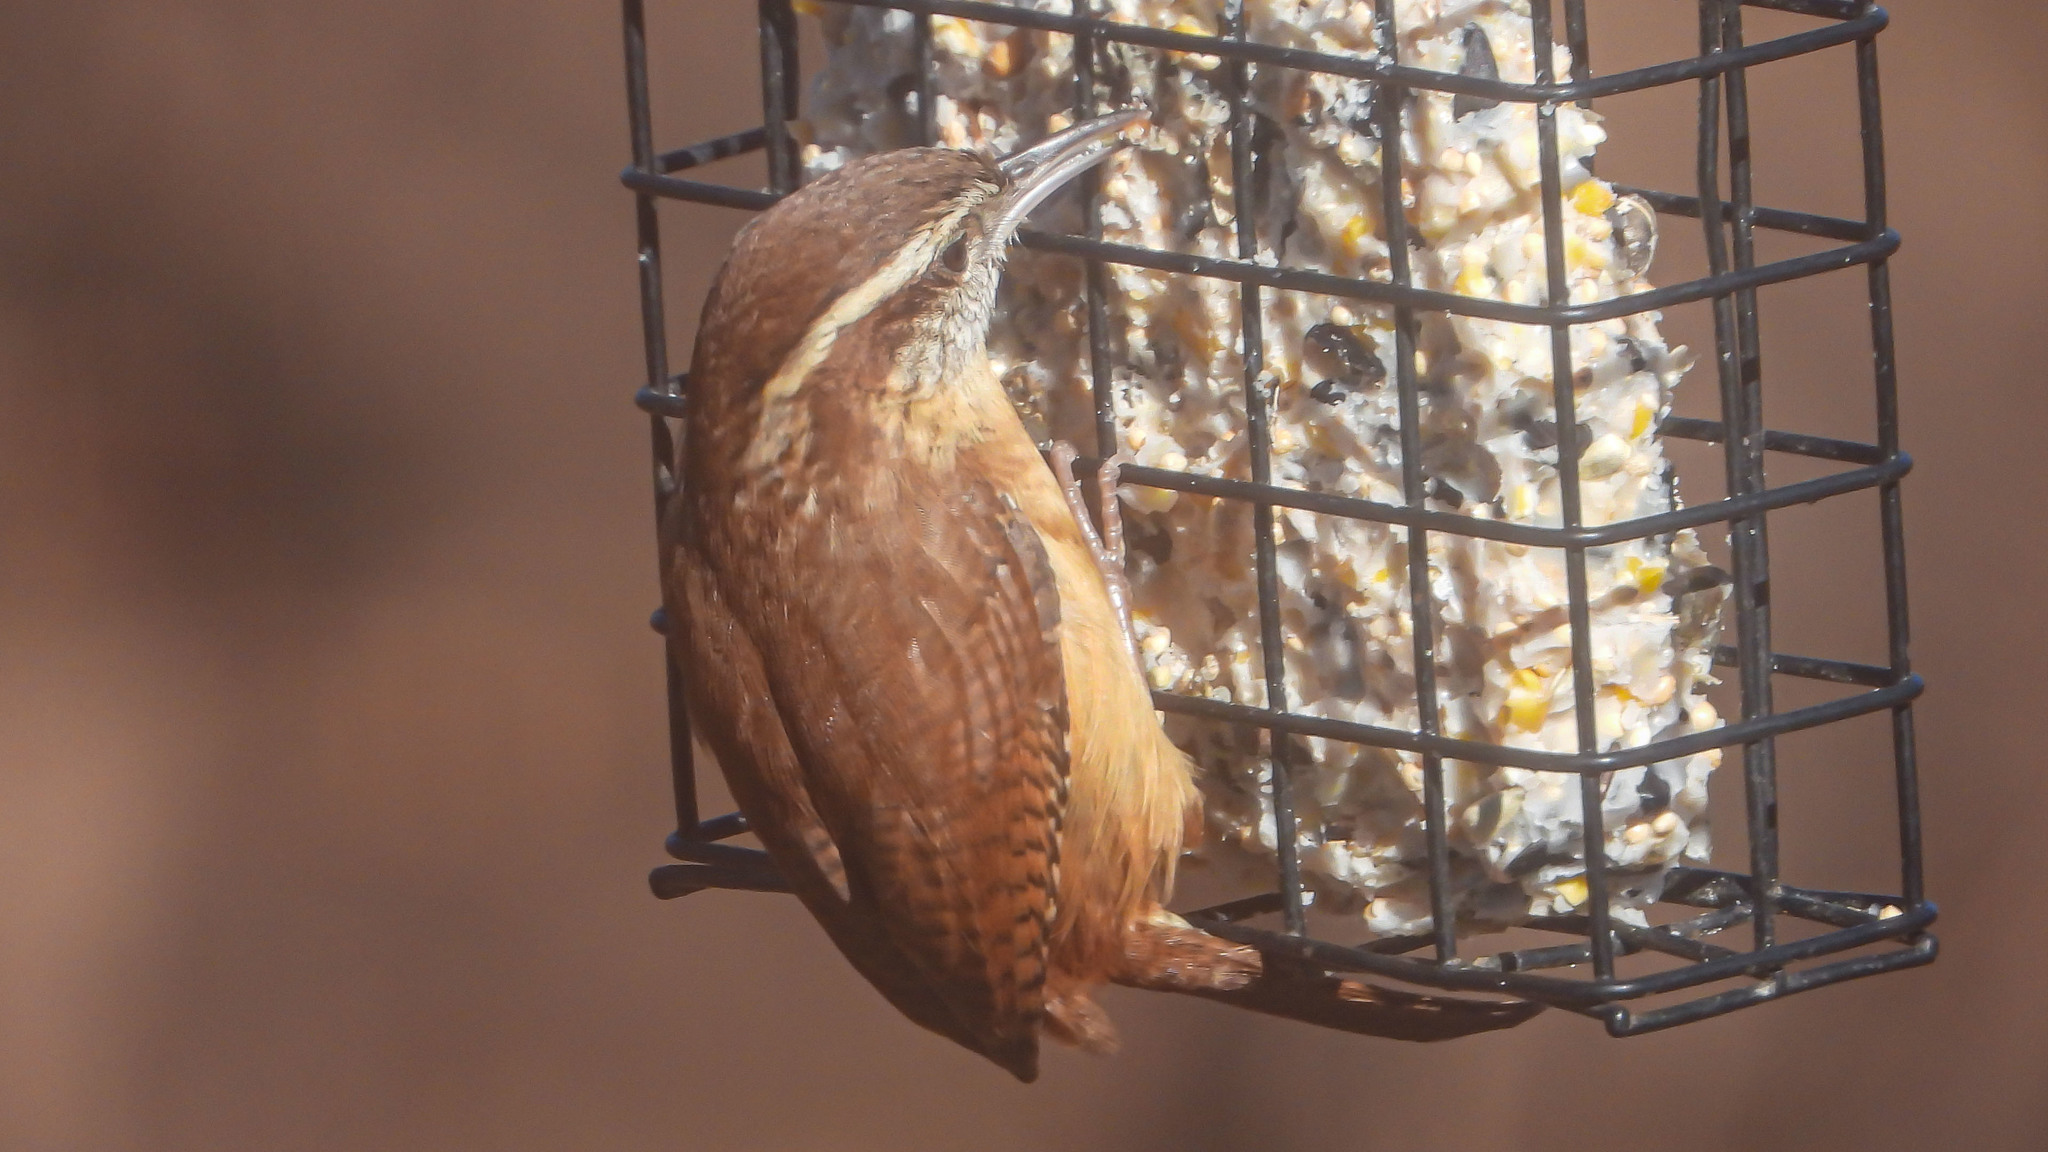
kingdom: Animalia
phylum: Chordata
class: Aves
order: Passeriformes
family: Troglodytidae
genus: Thryothorus
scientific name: Thryothorus ludovicianus
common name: Carolina wren
